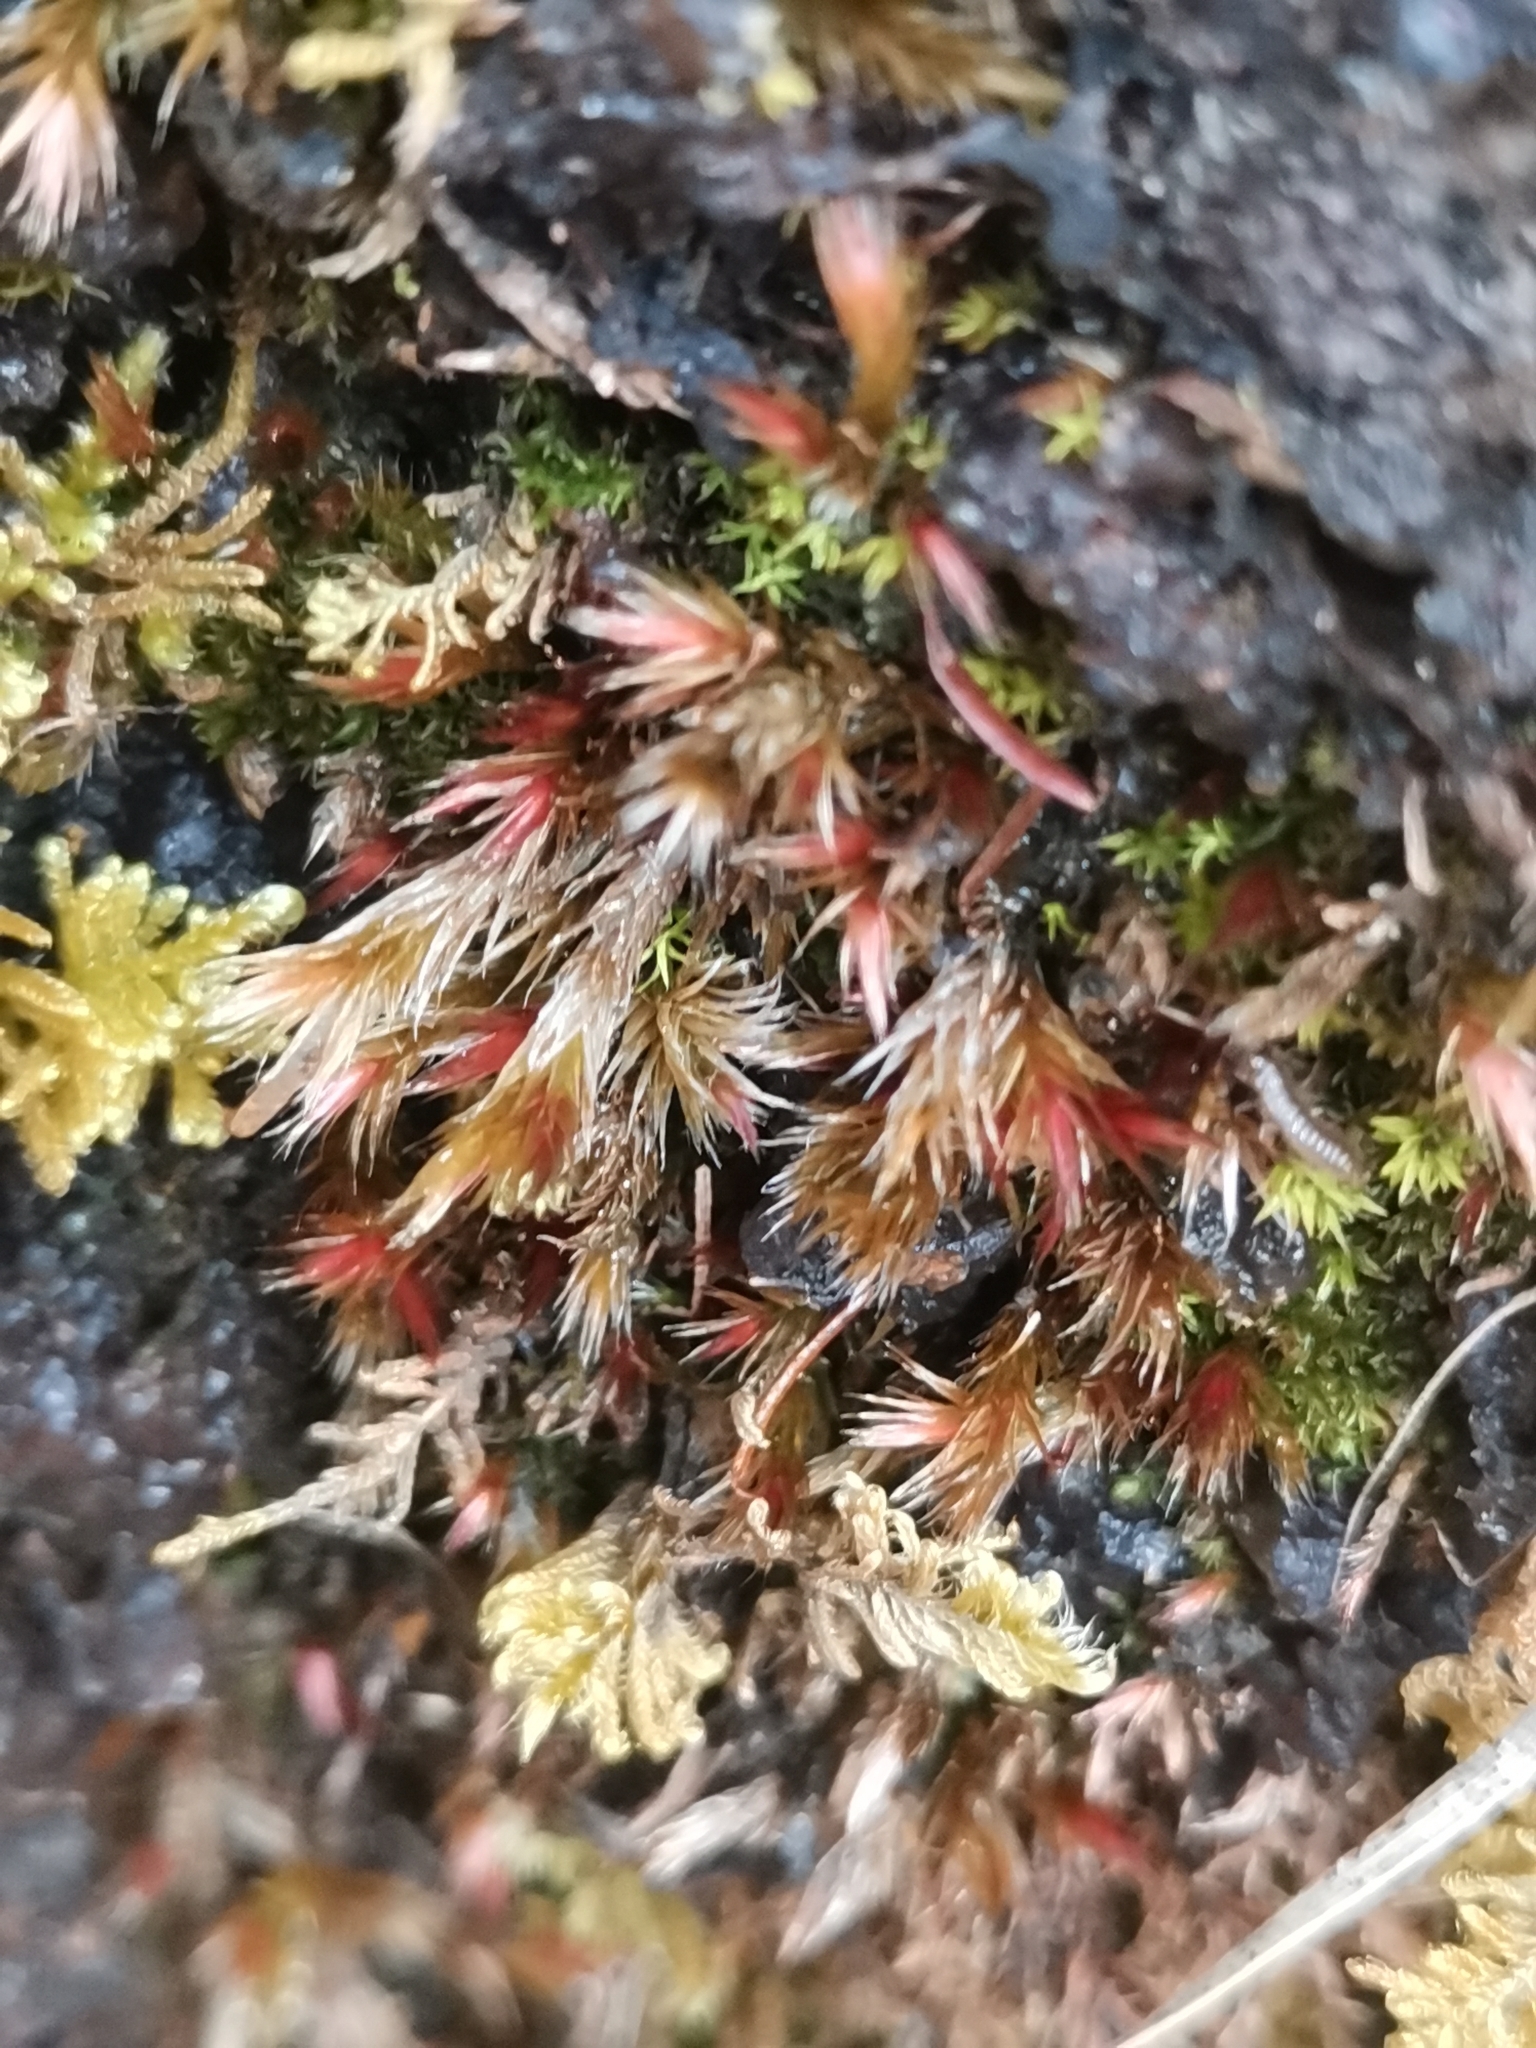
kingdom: Plantae
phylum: Bryophyta
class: Bryopsida
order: Hypnales
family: Plagiotheciaceae
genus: Orthothecium
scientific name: Orthothecium rufescens
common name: Red leskea
